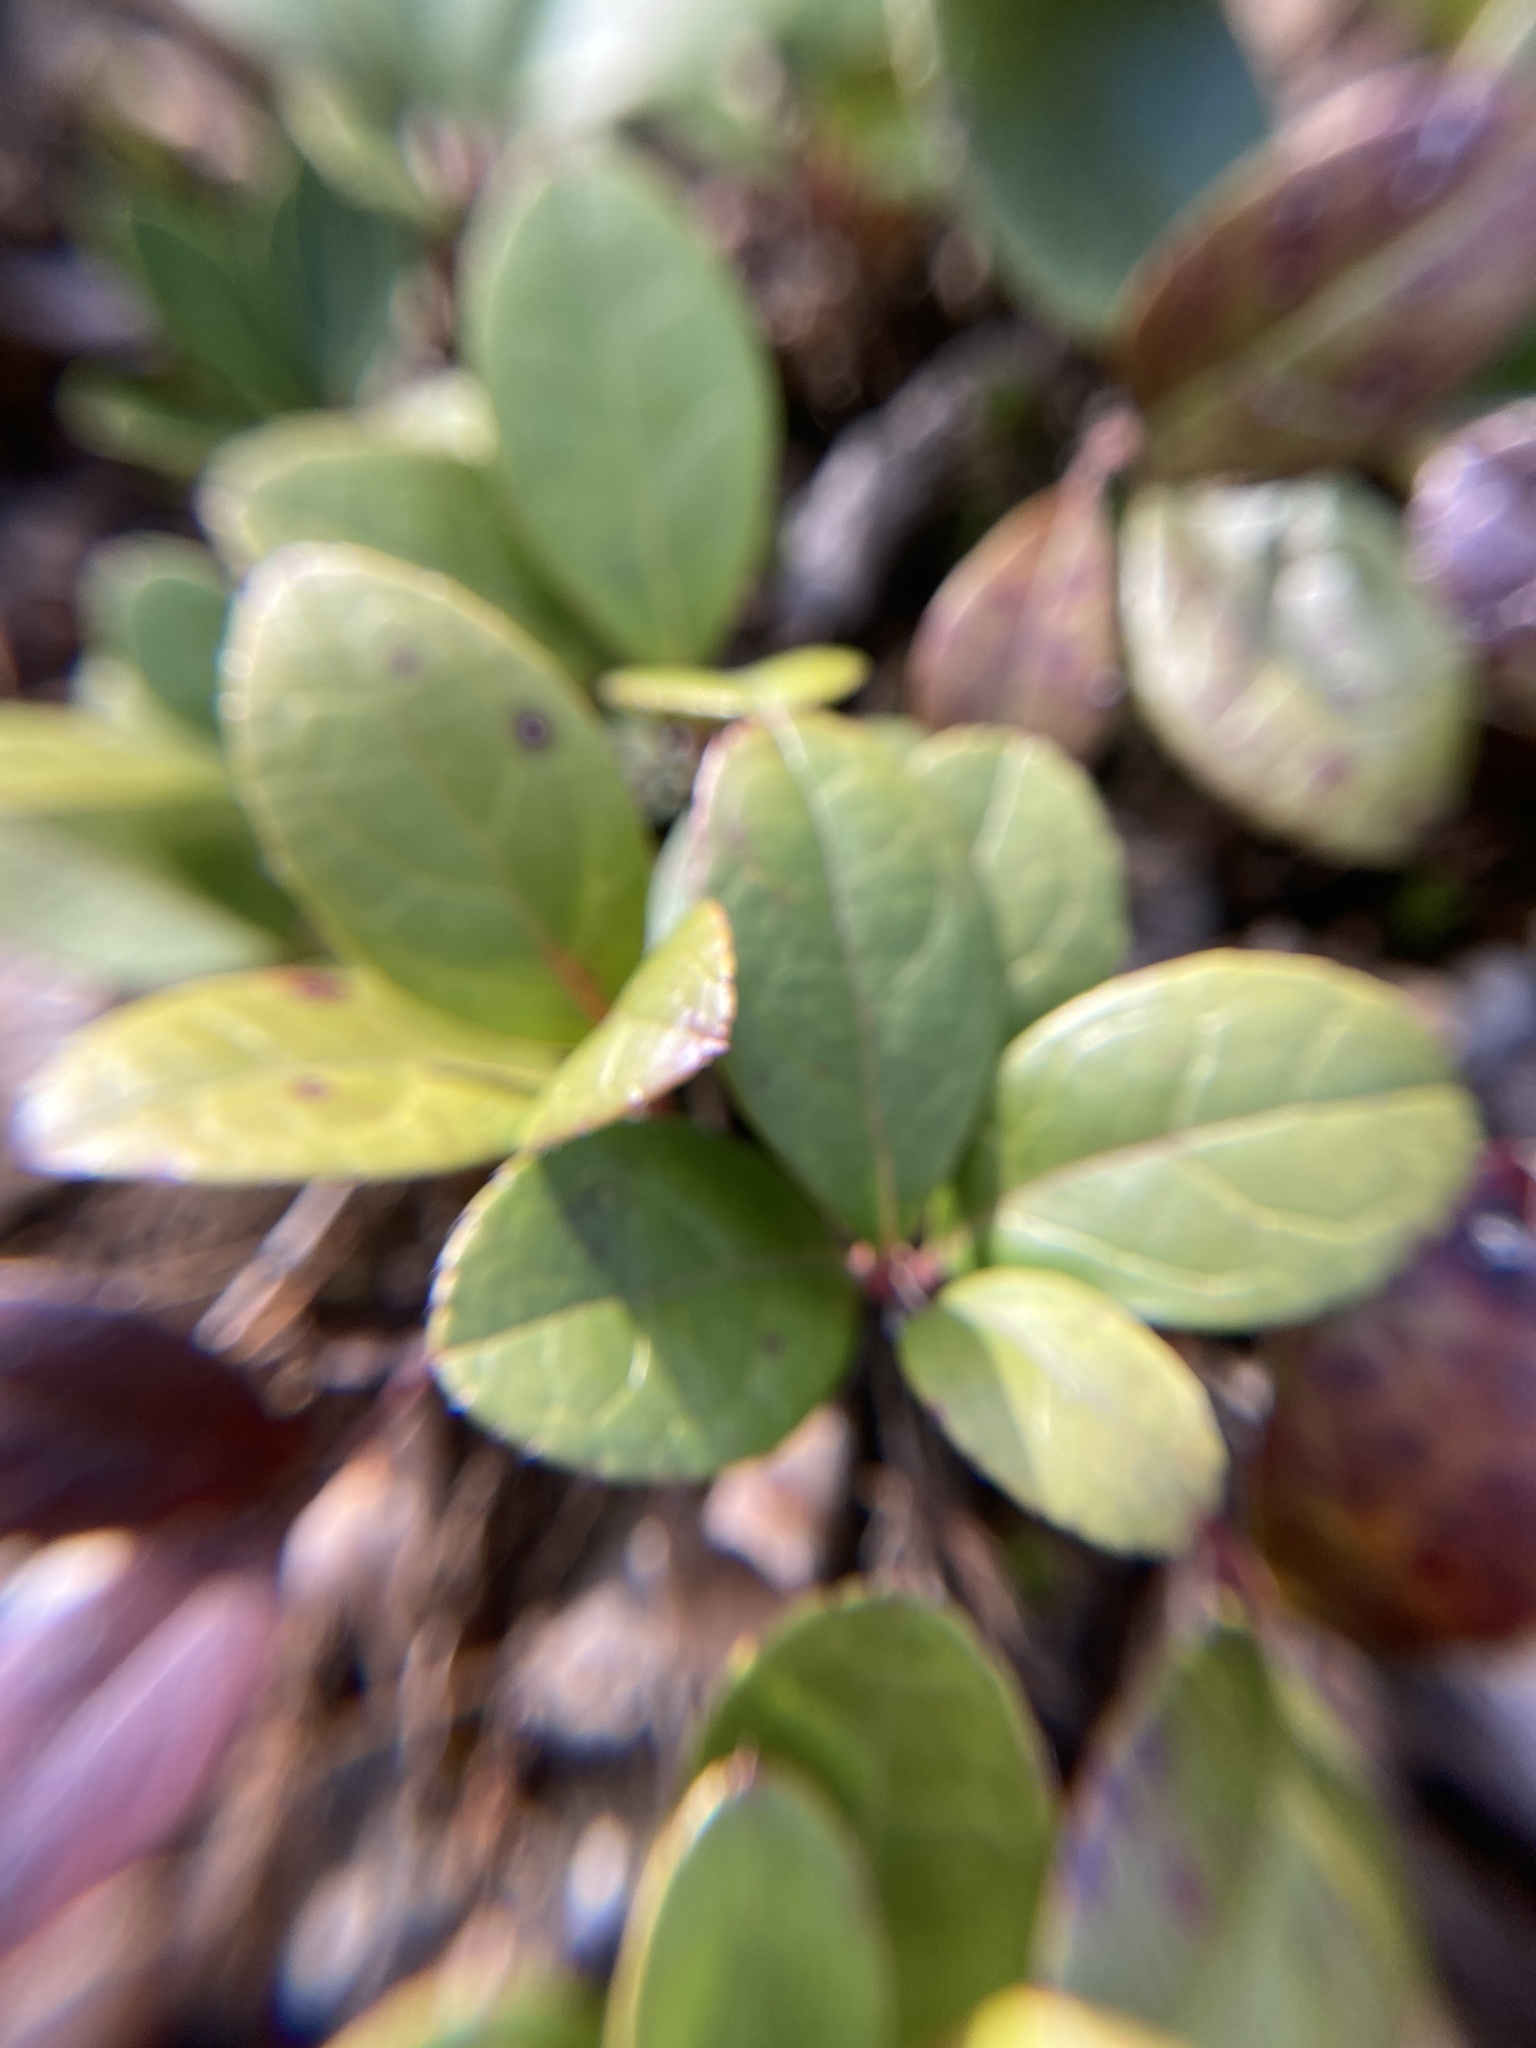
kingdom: Plantae
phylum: Tracheophyta
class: Magnoliopsida
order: Ericales
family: Ericaceae
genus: Gaultheria
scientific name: Gaultheria procumbens
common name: Checkerberry
